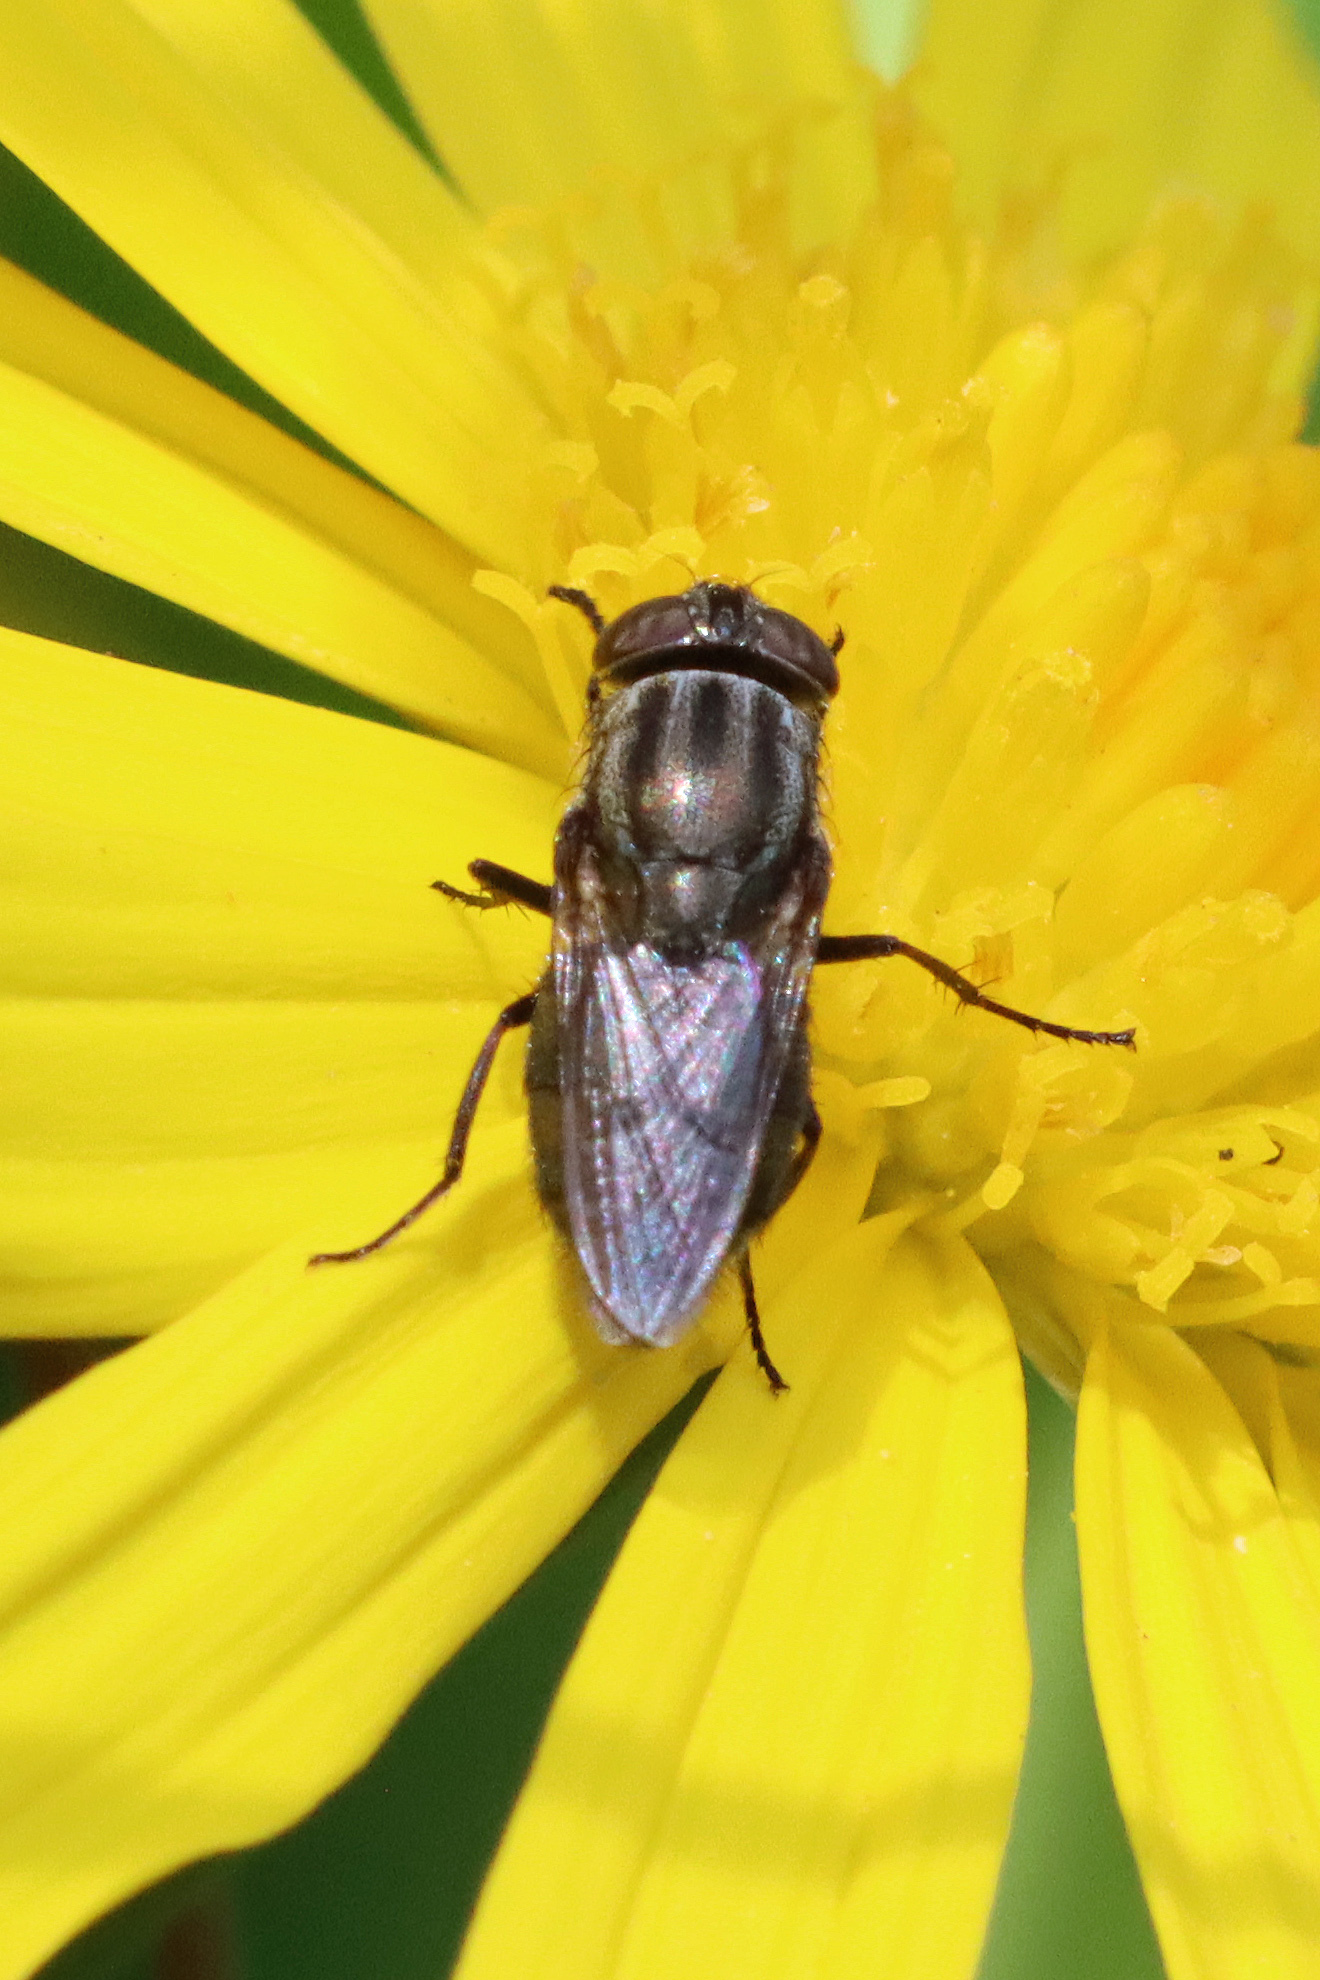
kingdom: Animalia
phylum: Arthropoda
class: Insecta
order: Diptera
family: Calliphoridae
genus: Stomorhina
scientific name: Stomorhina lunata
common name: Locust blowfly
